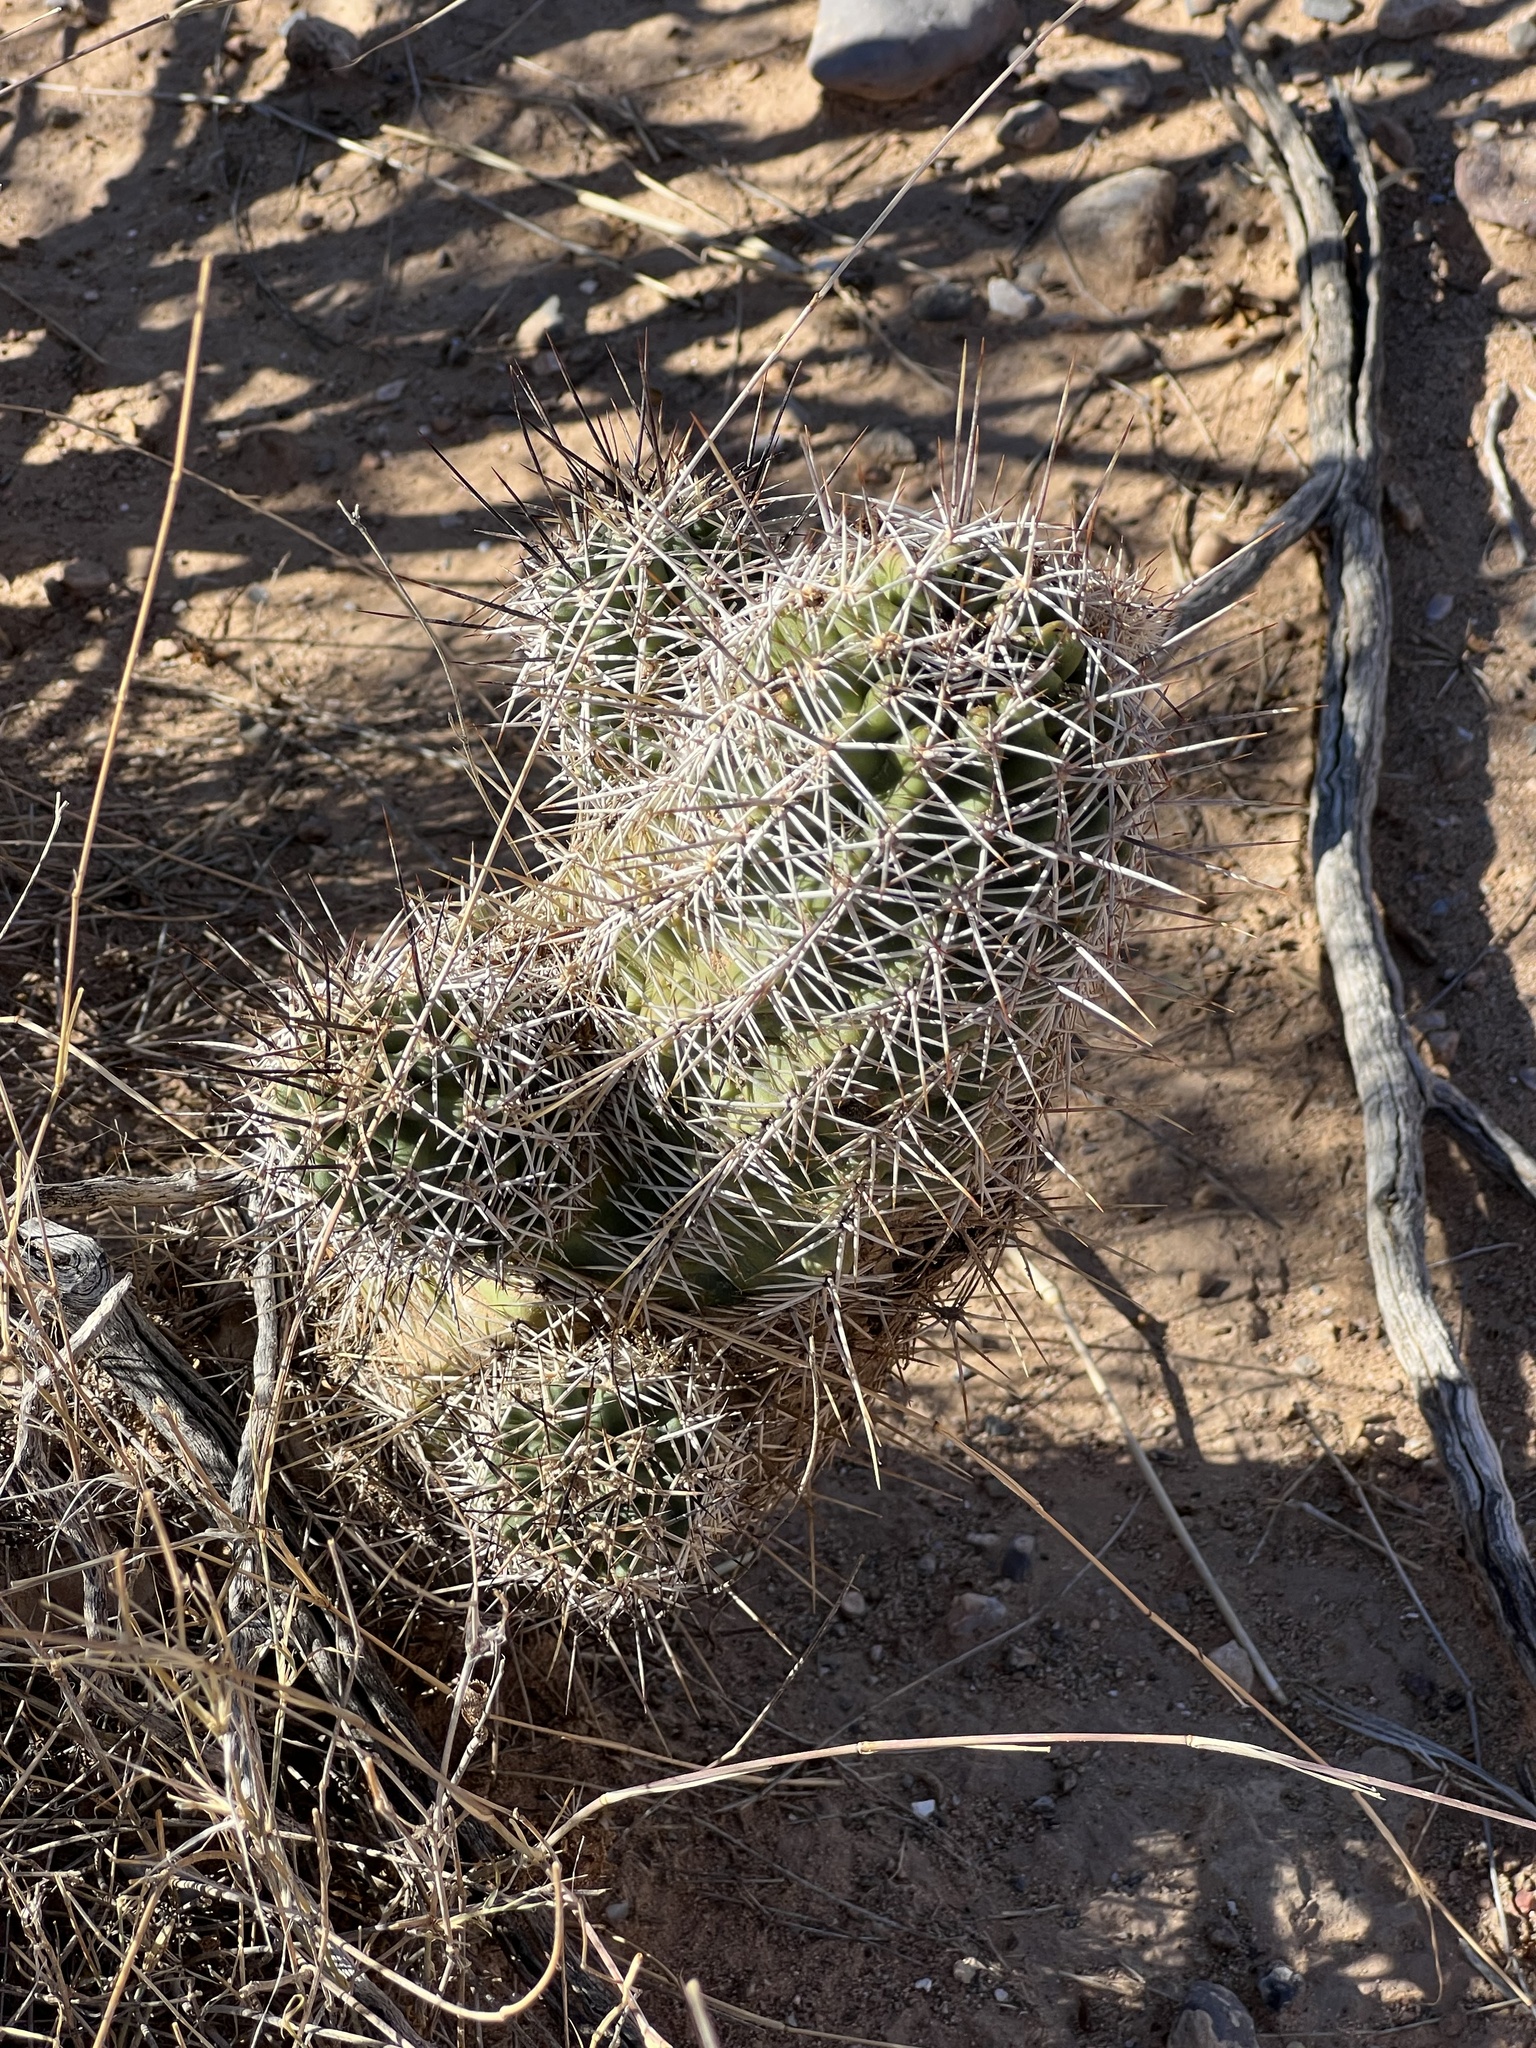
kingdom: Plantae
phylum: Tracheophyta
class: Magnoliopsida
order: Caryophyllales
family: Cactaceae
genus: Echinocereus
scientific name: Echinocereus fendleri
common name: Fendler's hedgehog cactus
